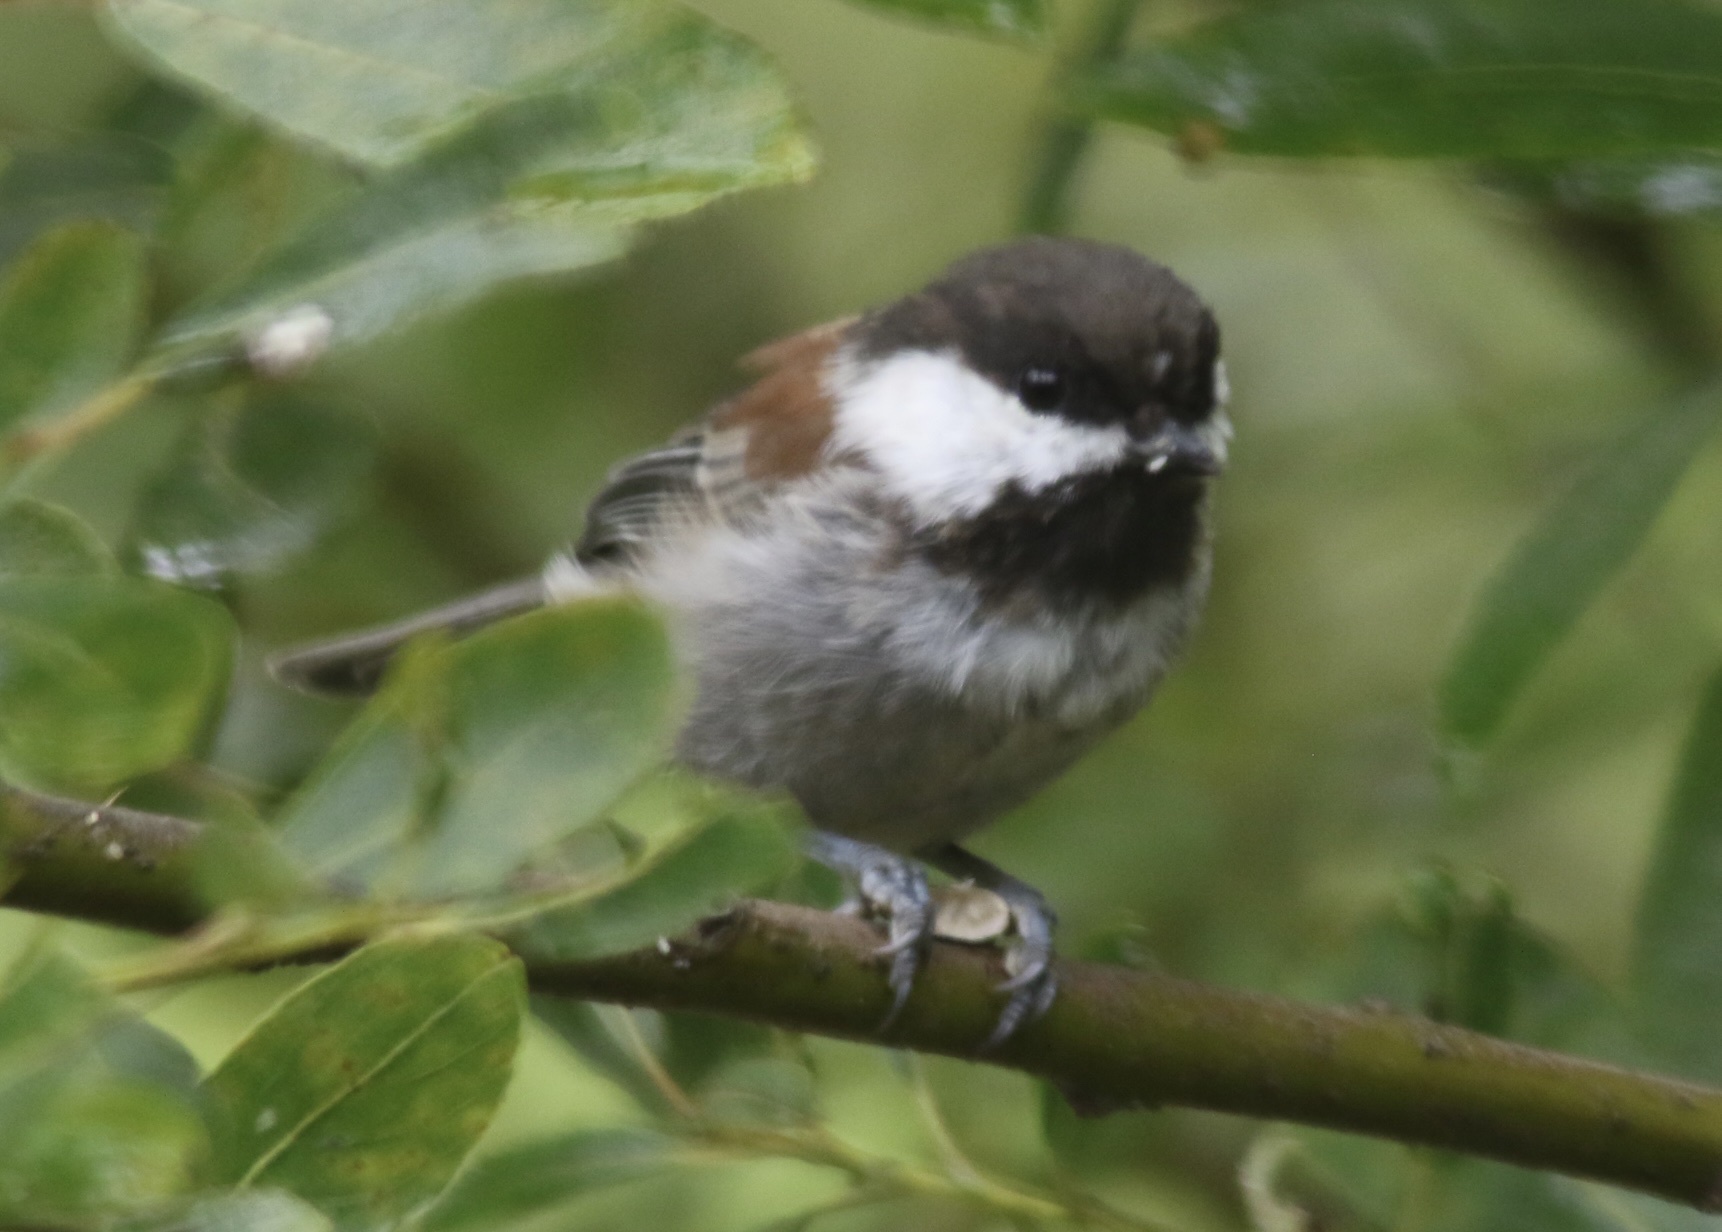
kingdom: Animalia
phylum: Chordata
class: Aves
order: Passeriformes
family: Paridae
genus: Poecile
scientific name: Poecile rufescens
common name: Chestnut-backed chickadee
